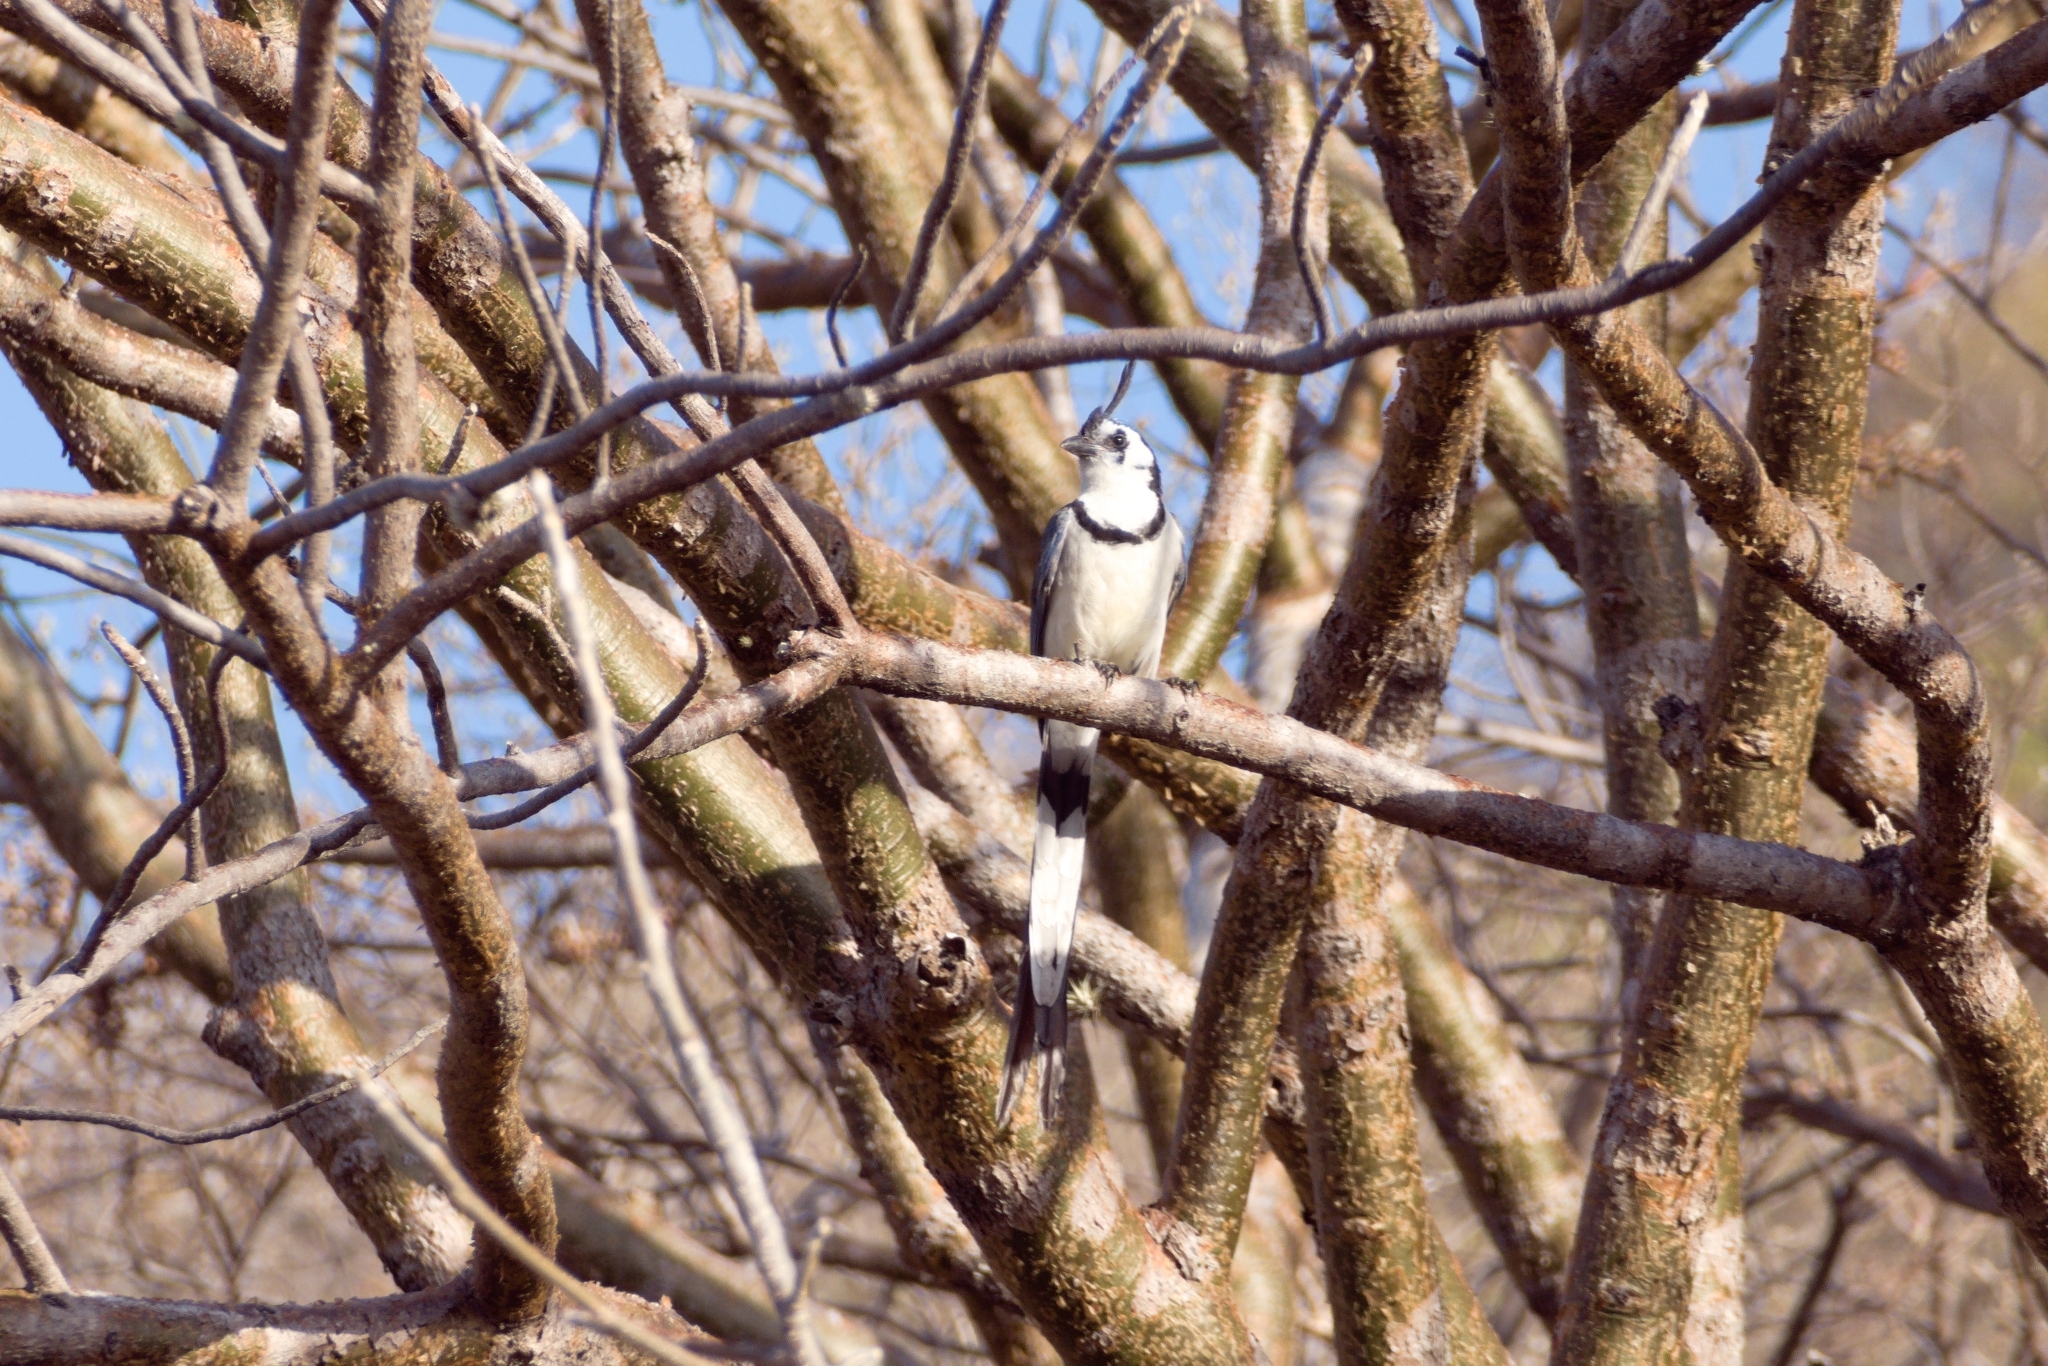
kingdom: Animalia
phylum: Chordata
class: Aves
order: Passeriformes
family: Corvidae
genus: Calocitta
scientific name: Calocitta formosa
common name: White-throated magpie-jay
